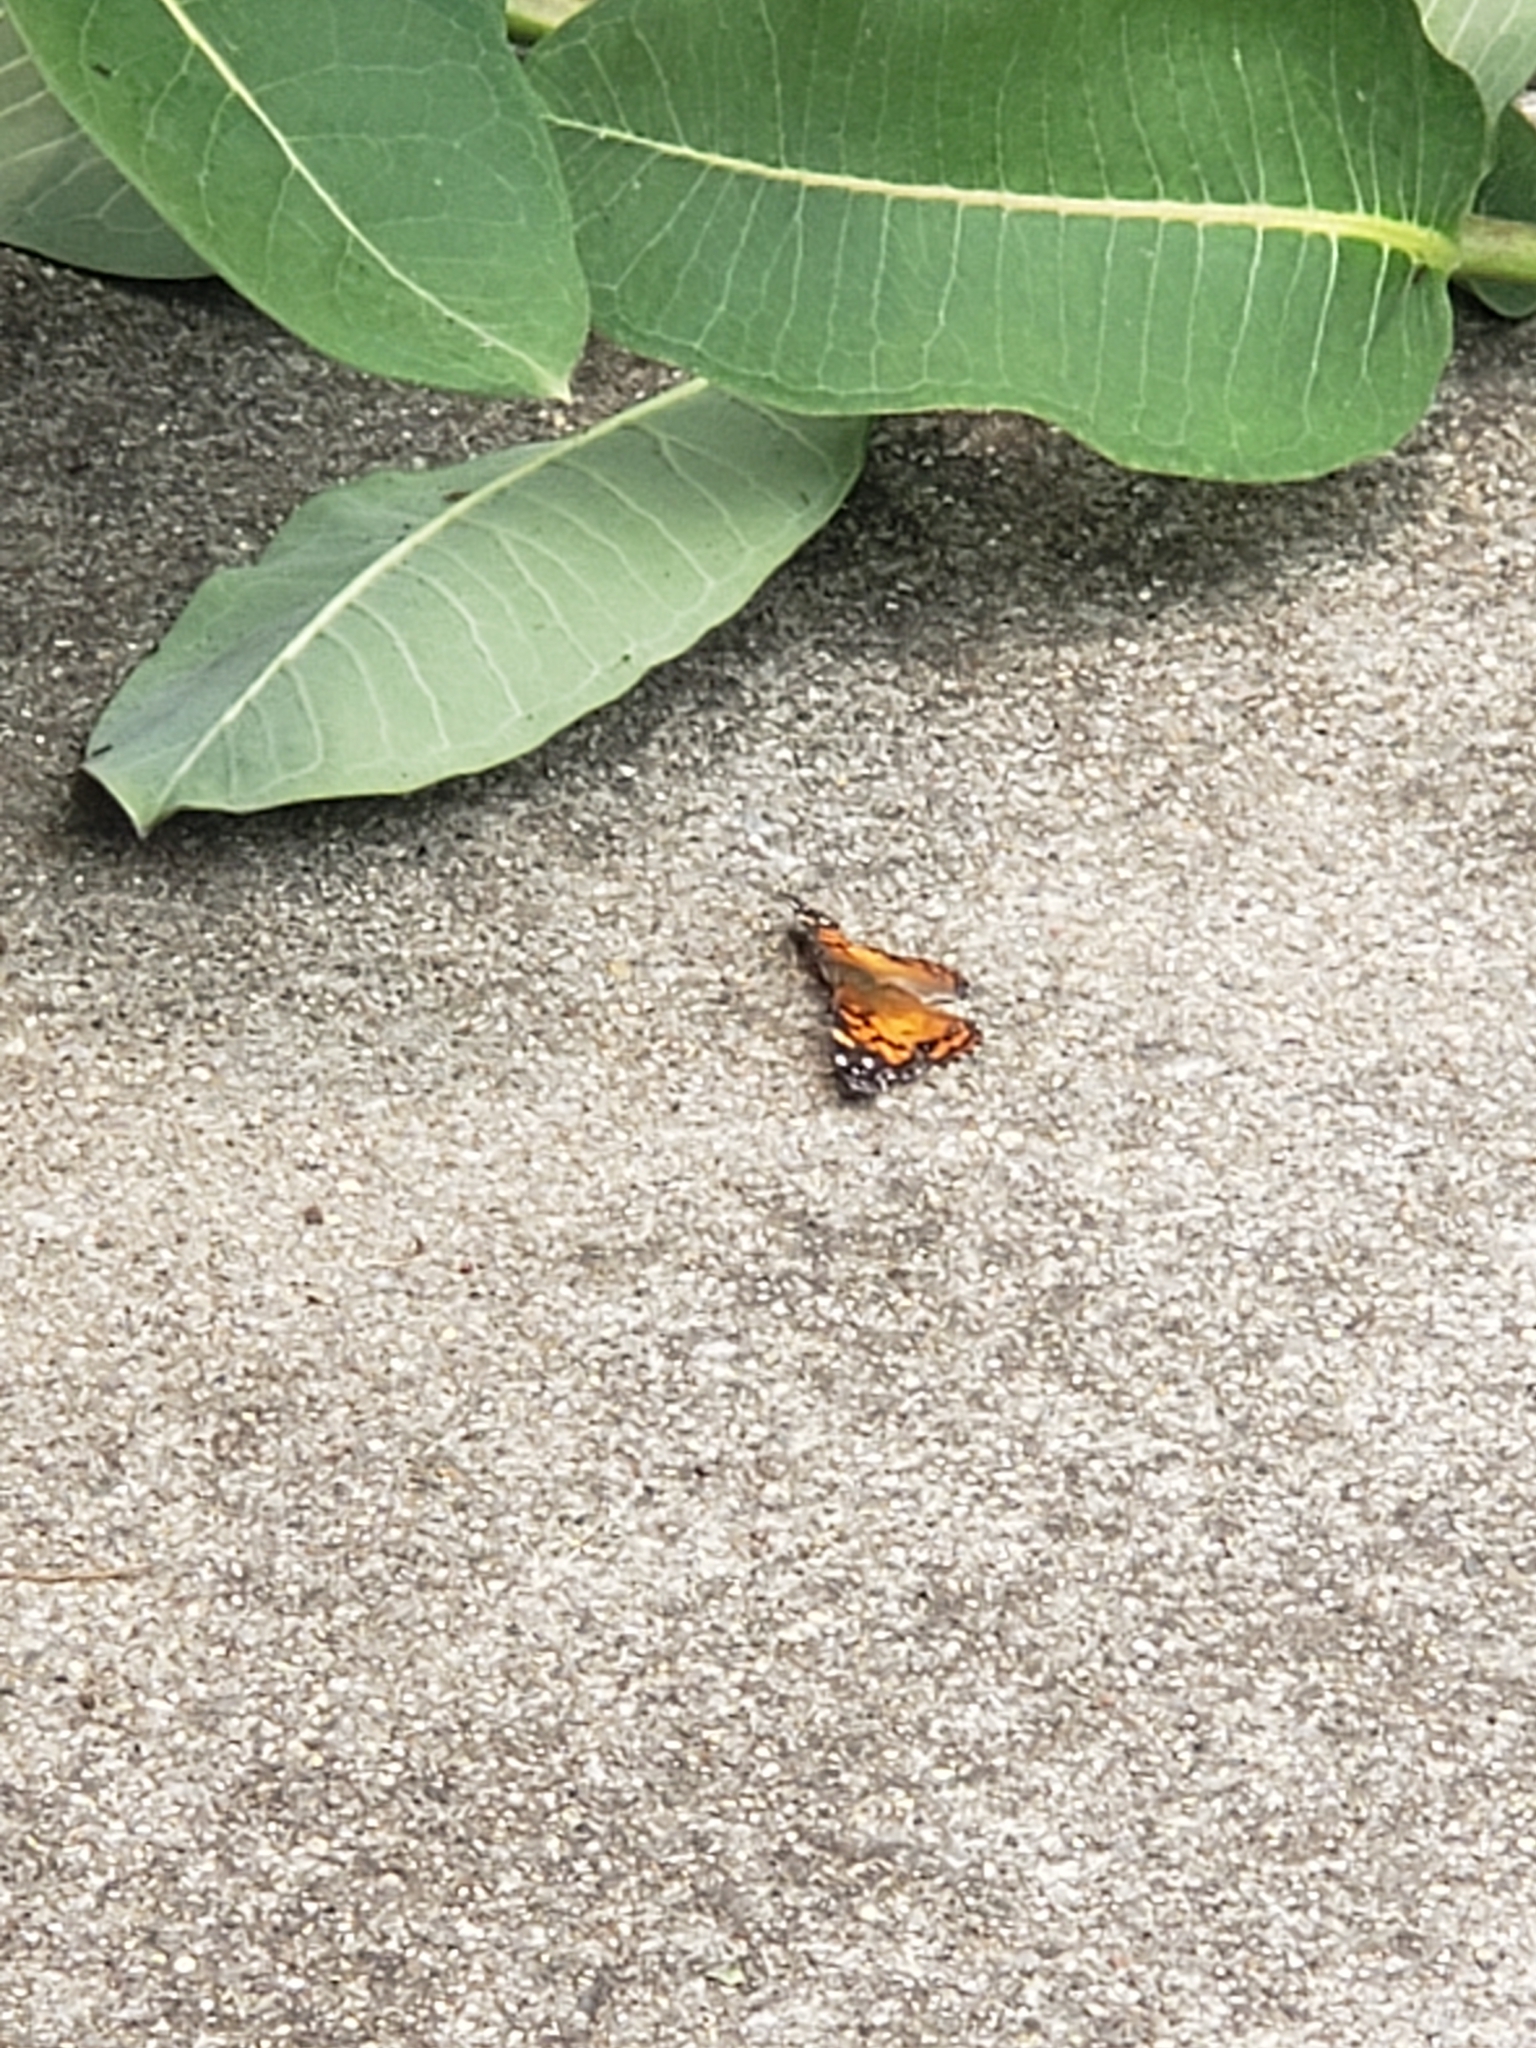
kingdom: Animalia
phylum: Arthropoda
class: Insecta
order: Lepidoptera
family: Nymphalidae
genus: Vanessa
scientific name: Vanessa virginiensis
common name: American lady
